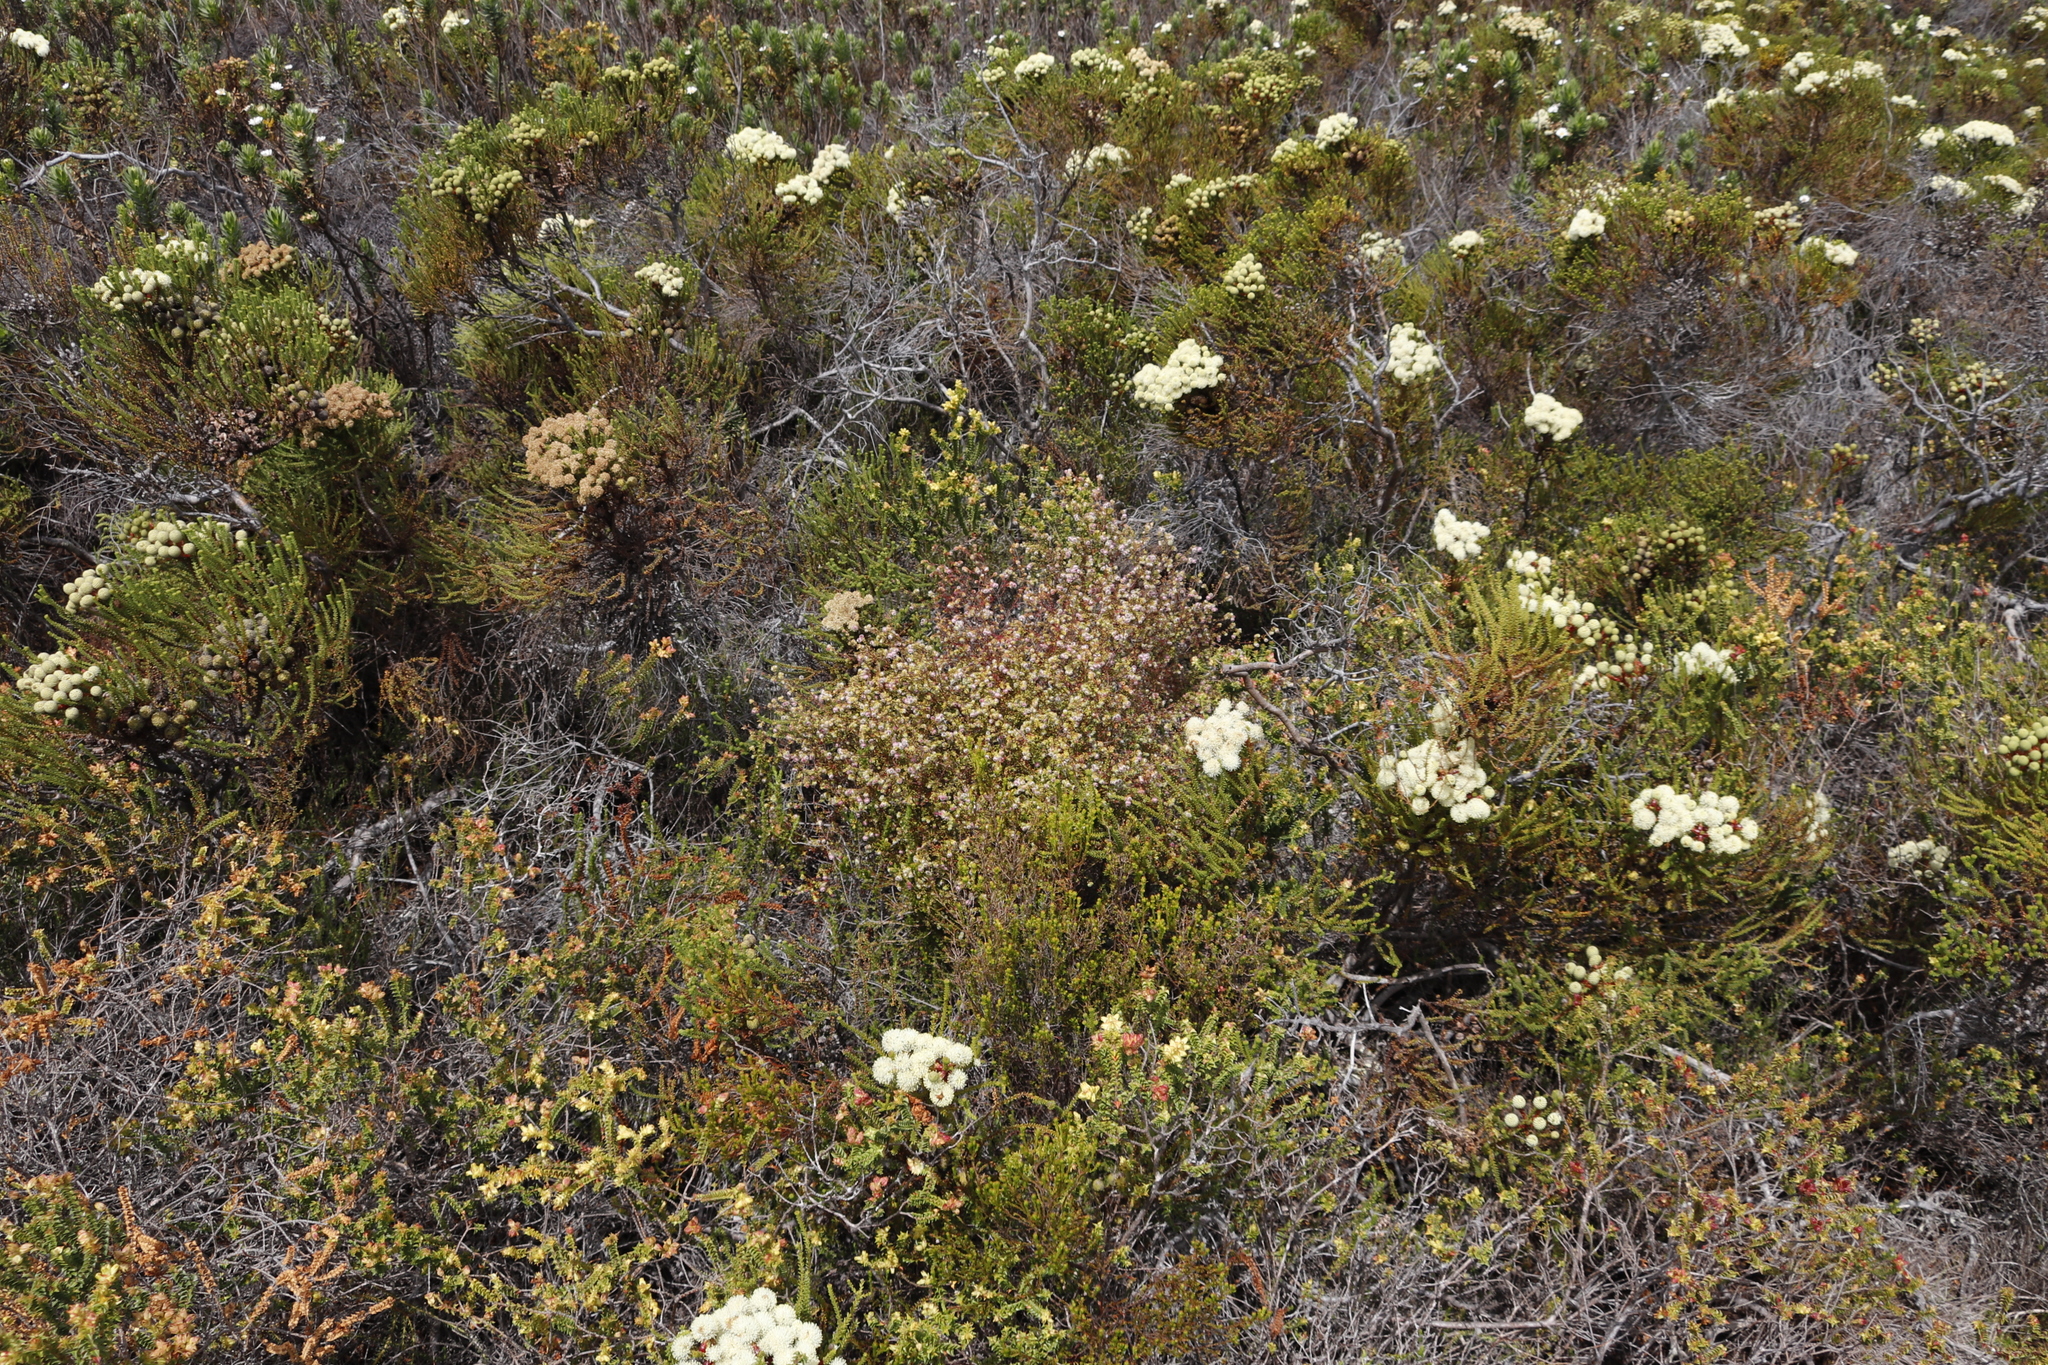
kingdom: Plantae
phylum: Tracheophyta
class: Magnoliopsida
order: Ericales
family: Ericaceae
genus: Erica
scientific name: Erica bruniades
